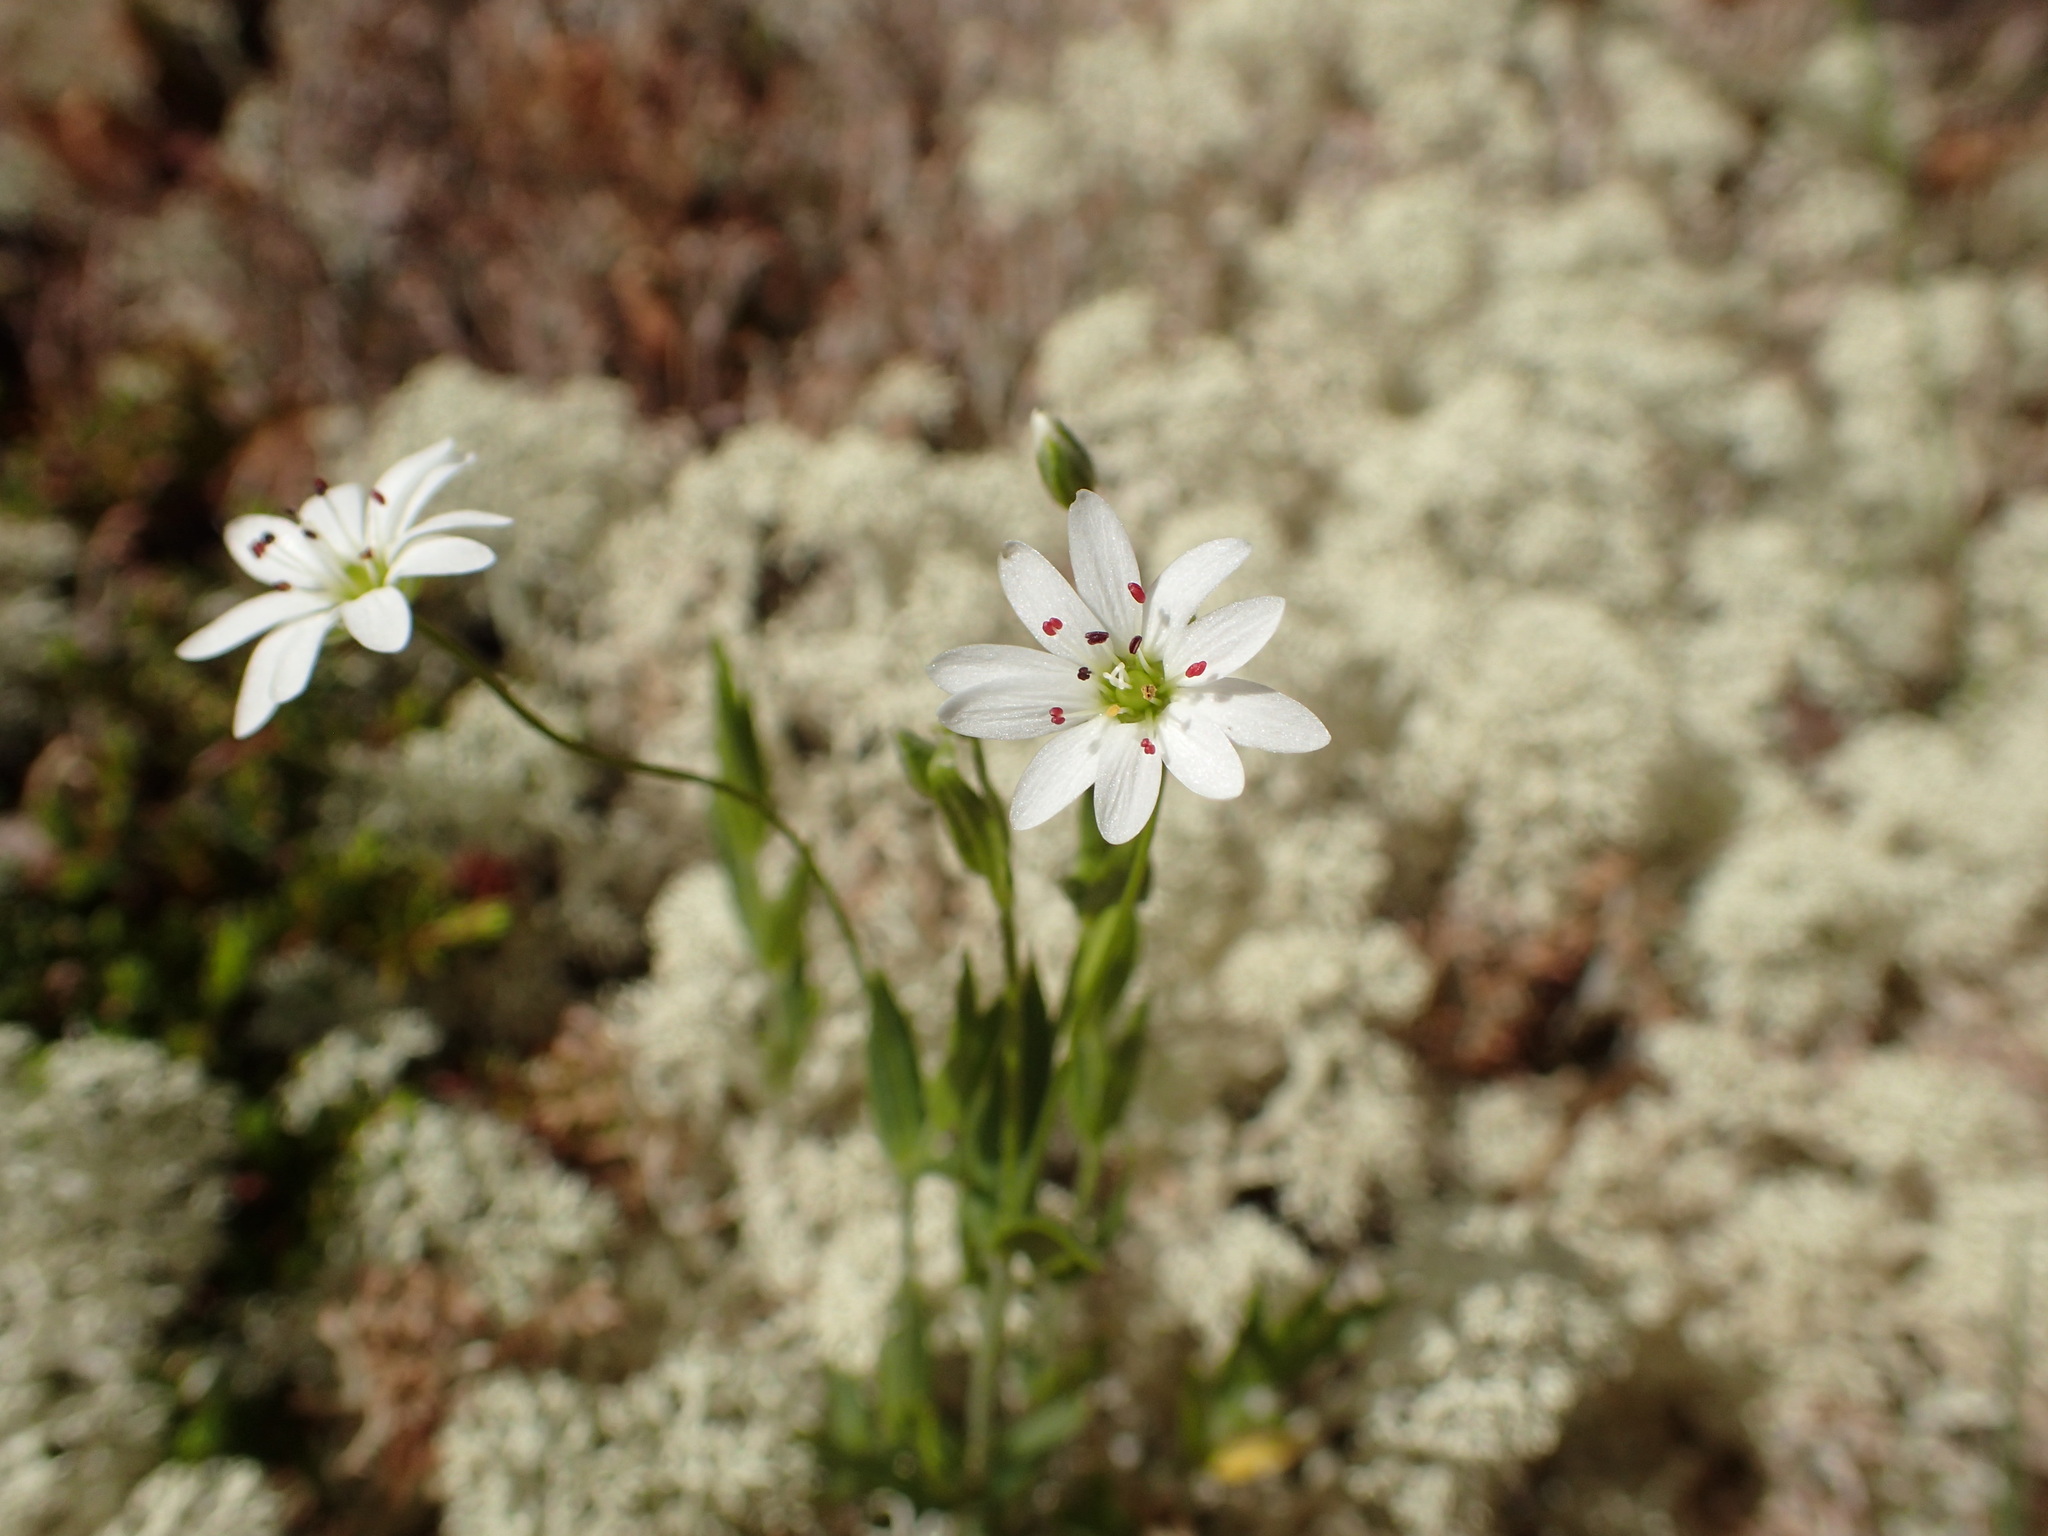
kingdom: Plantae
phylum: Tracheophyta
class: Magnoliopsida
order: Caryophyllales
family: Caryophyllaceae
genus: Stellaria
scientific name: Stellaria longipes
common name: Goldie's starwort
